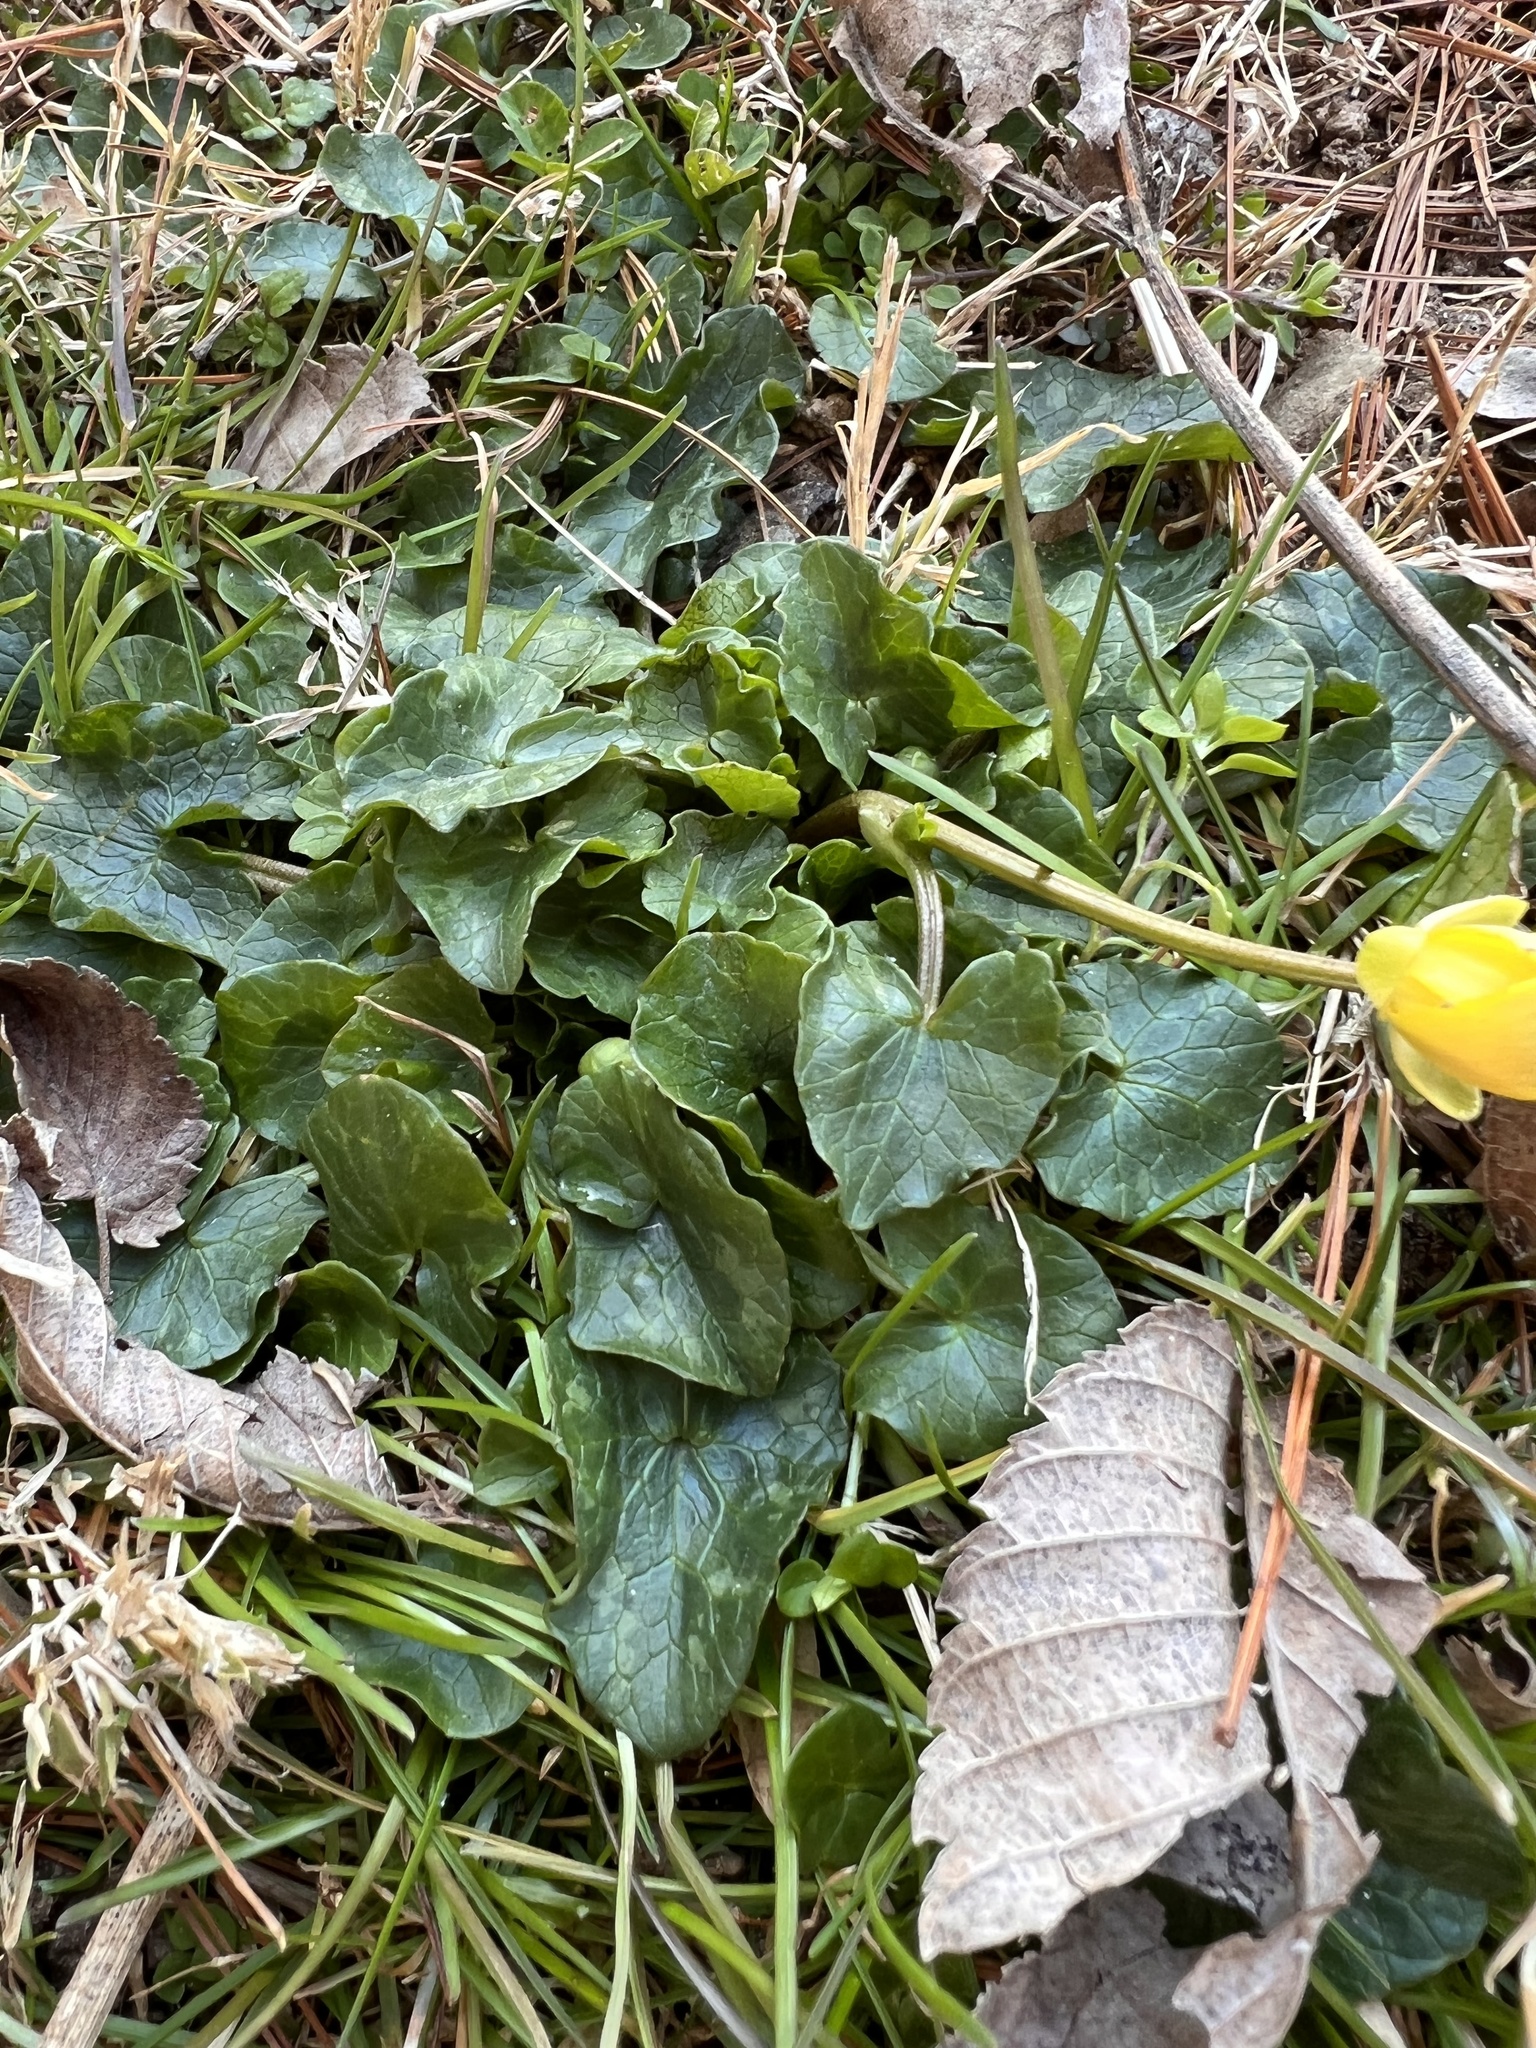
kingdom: Plantae
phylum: Tracheophyta
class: Magnoliopsida
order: Ranunculales
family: Ranunculaceae
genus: Ficaria
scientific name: Ficaria verna
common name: Lesser celandine
